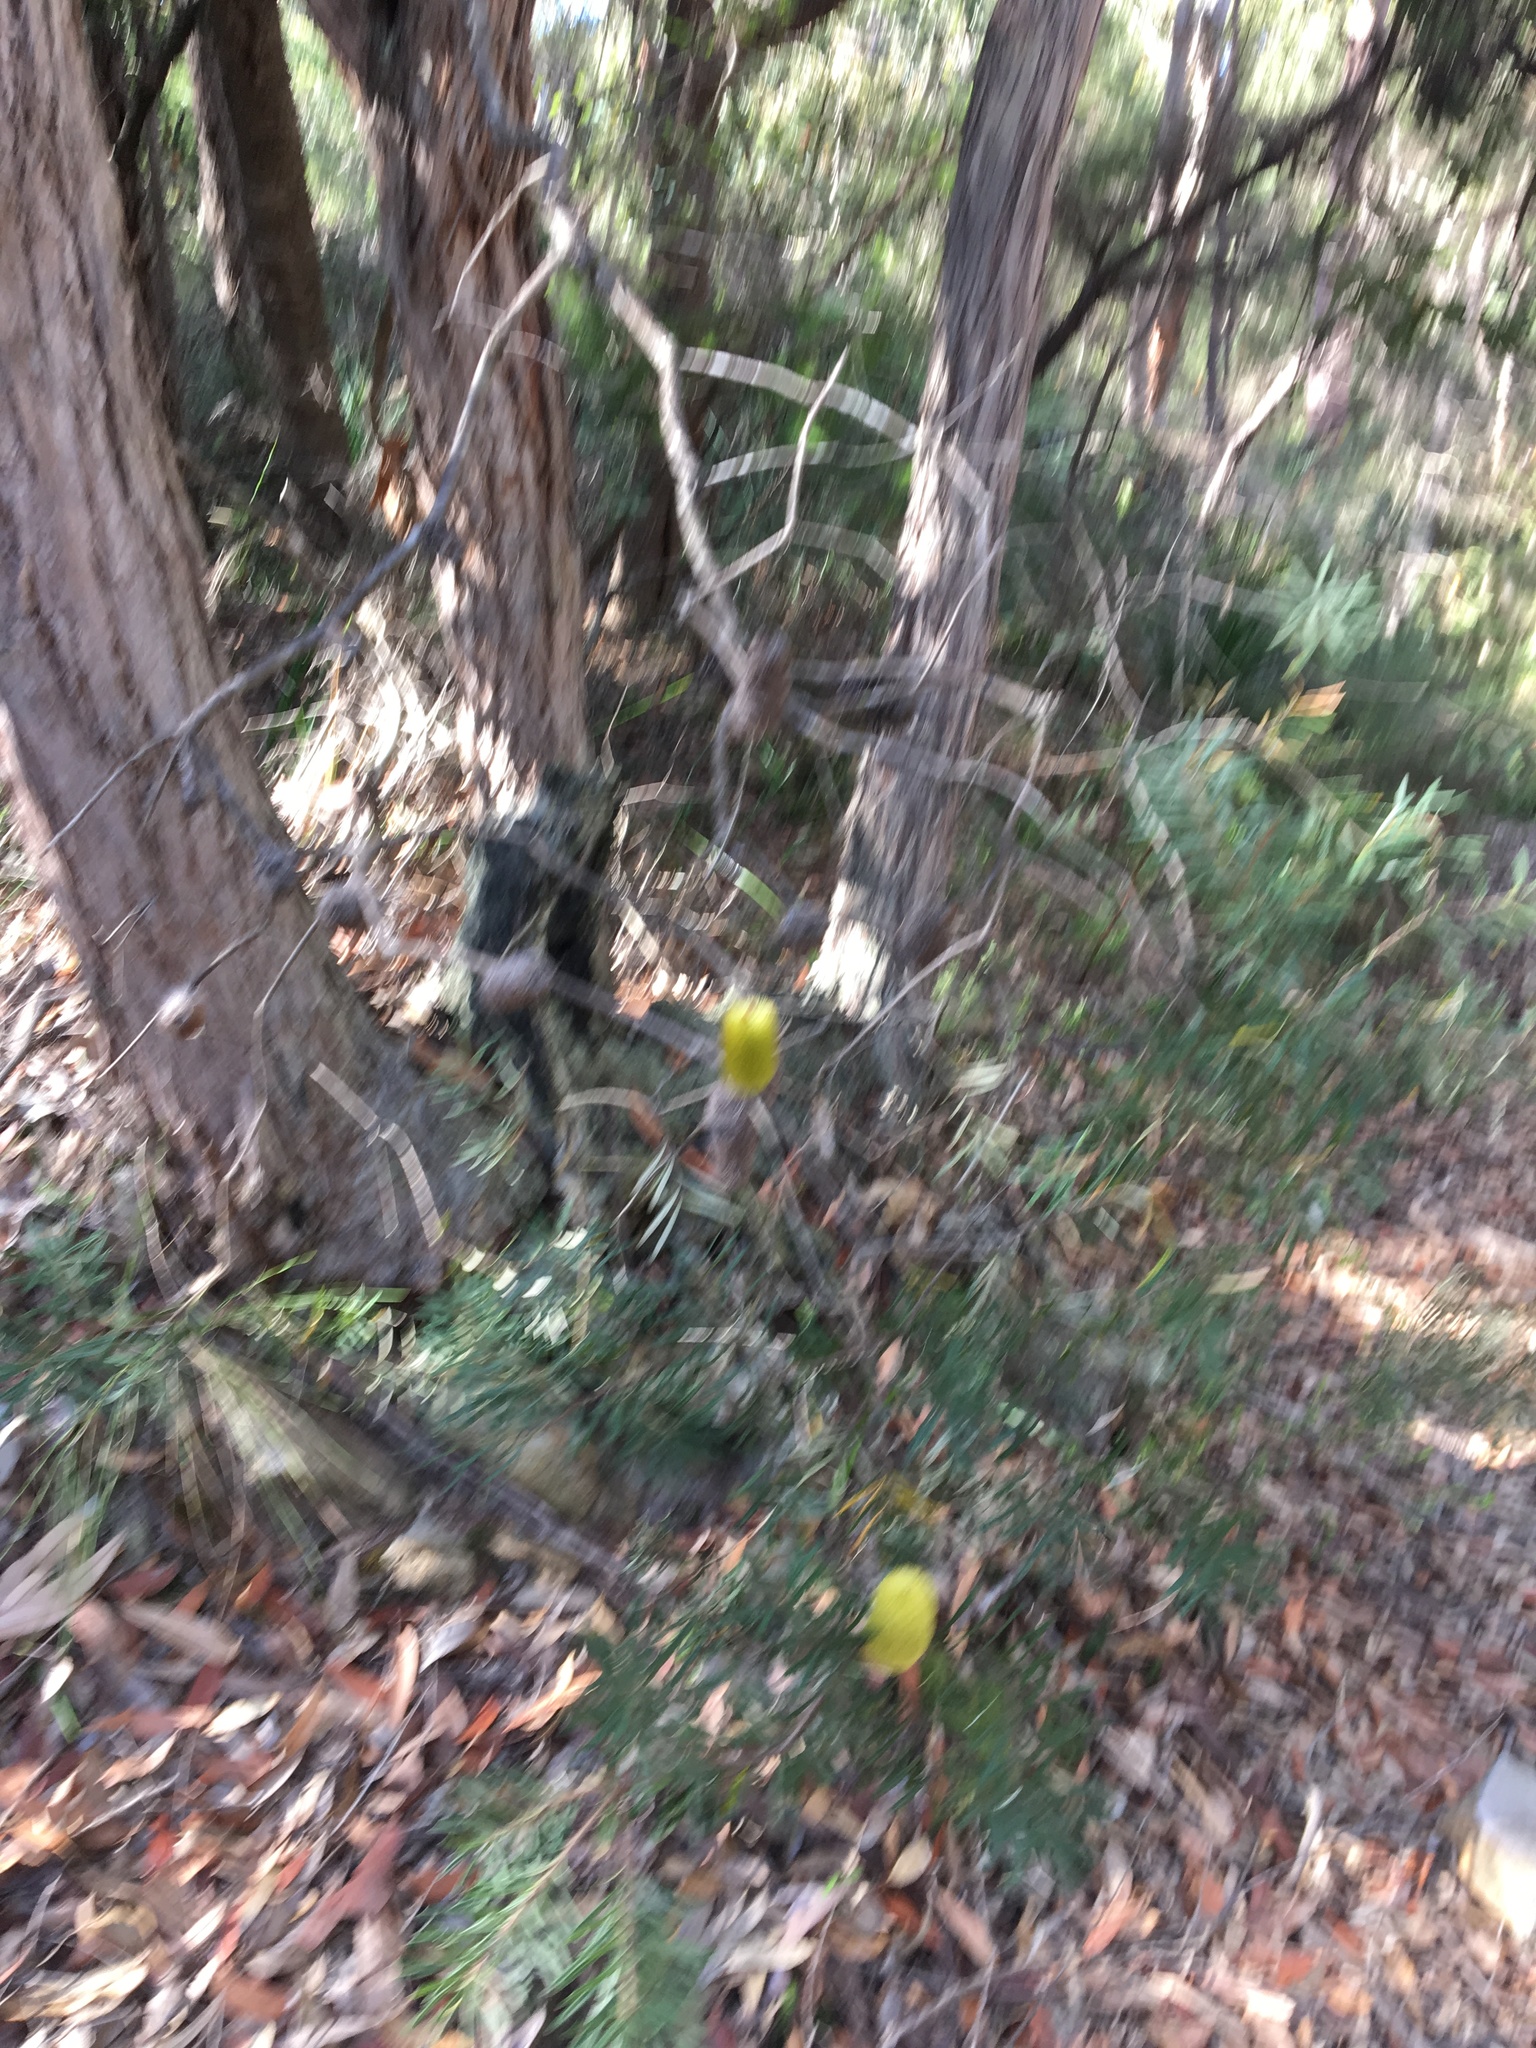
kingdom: Plantae
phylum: Tracheophyta
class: Magnoliopsida
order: Proteales
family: Proteaceae
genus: Banksia
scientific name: Banksia marginata
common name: Silver banksia
